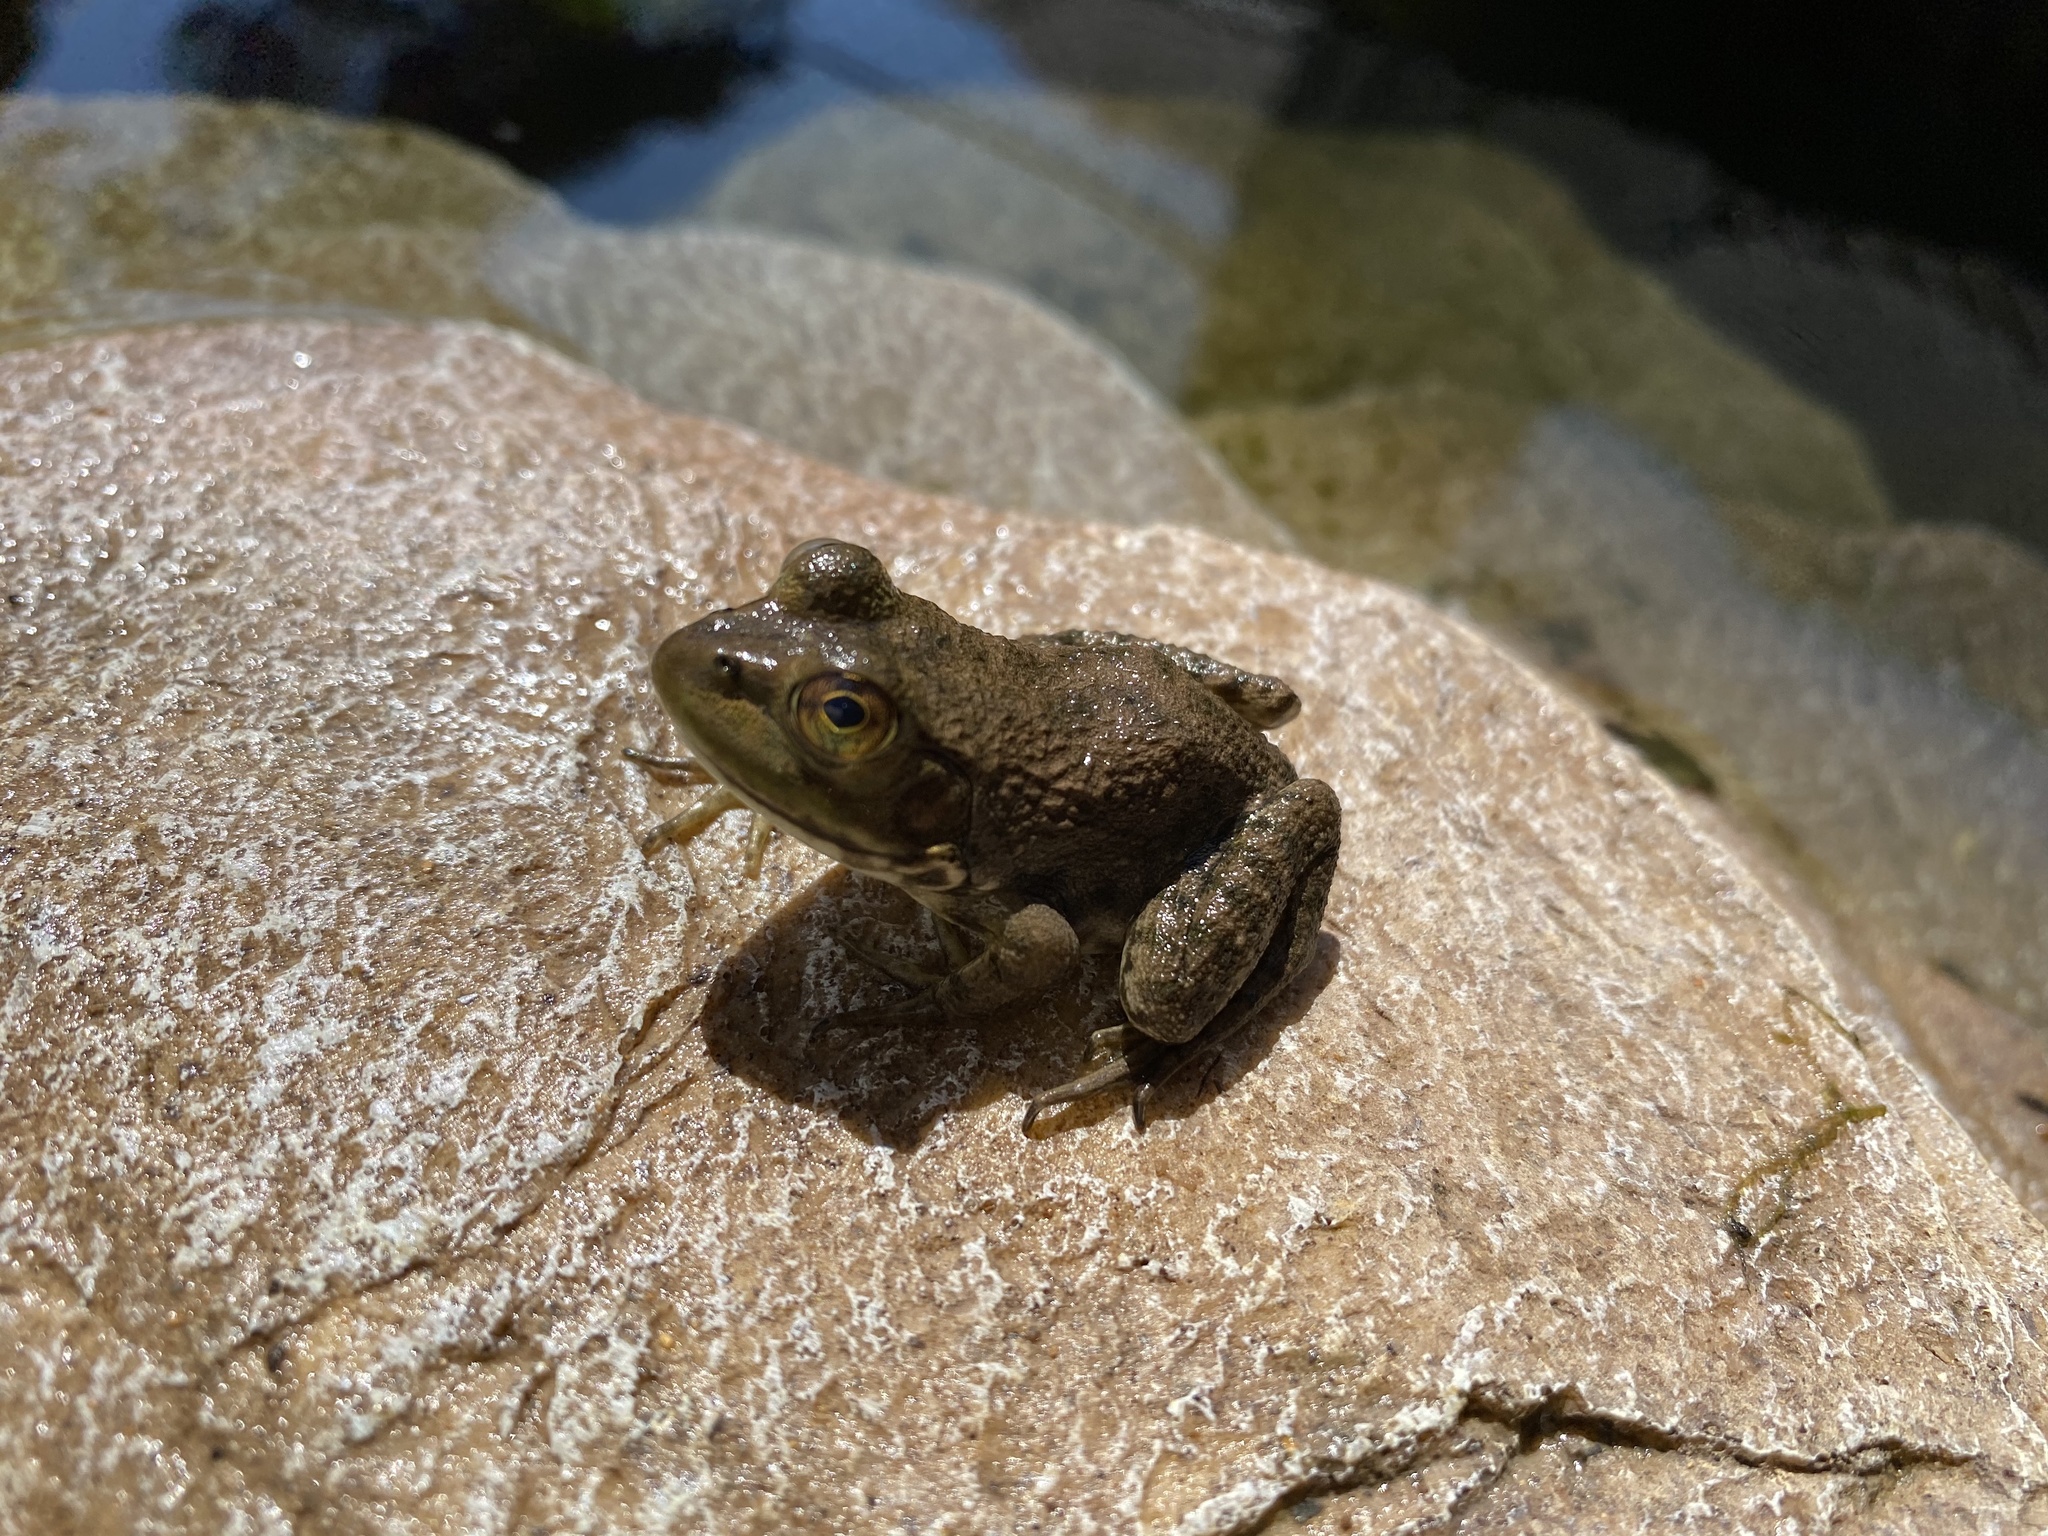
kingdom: Animalia
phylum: Chordata
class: Amphibia
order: Anura
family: Ranidae
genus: Lithobates
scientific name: Lithobates clamitans
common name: Green frog
